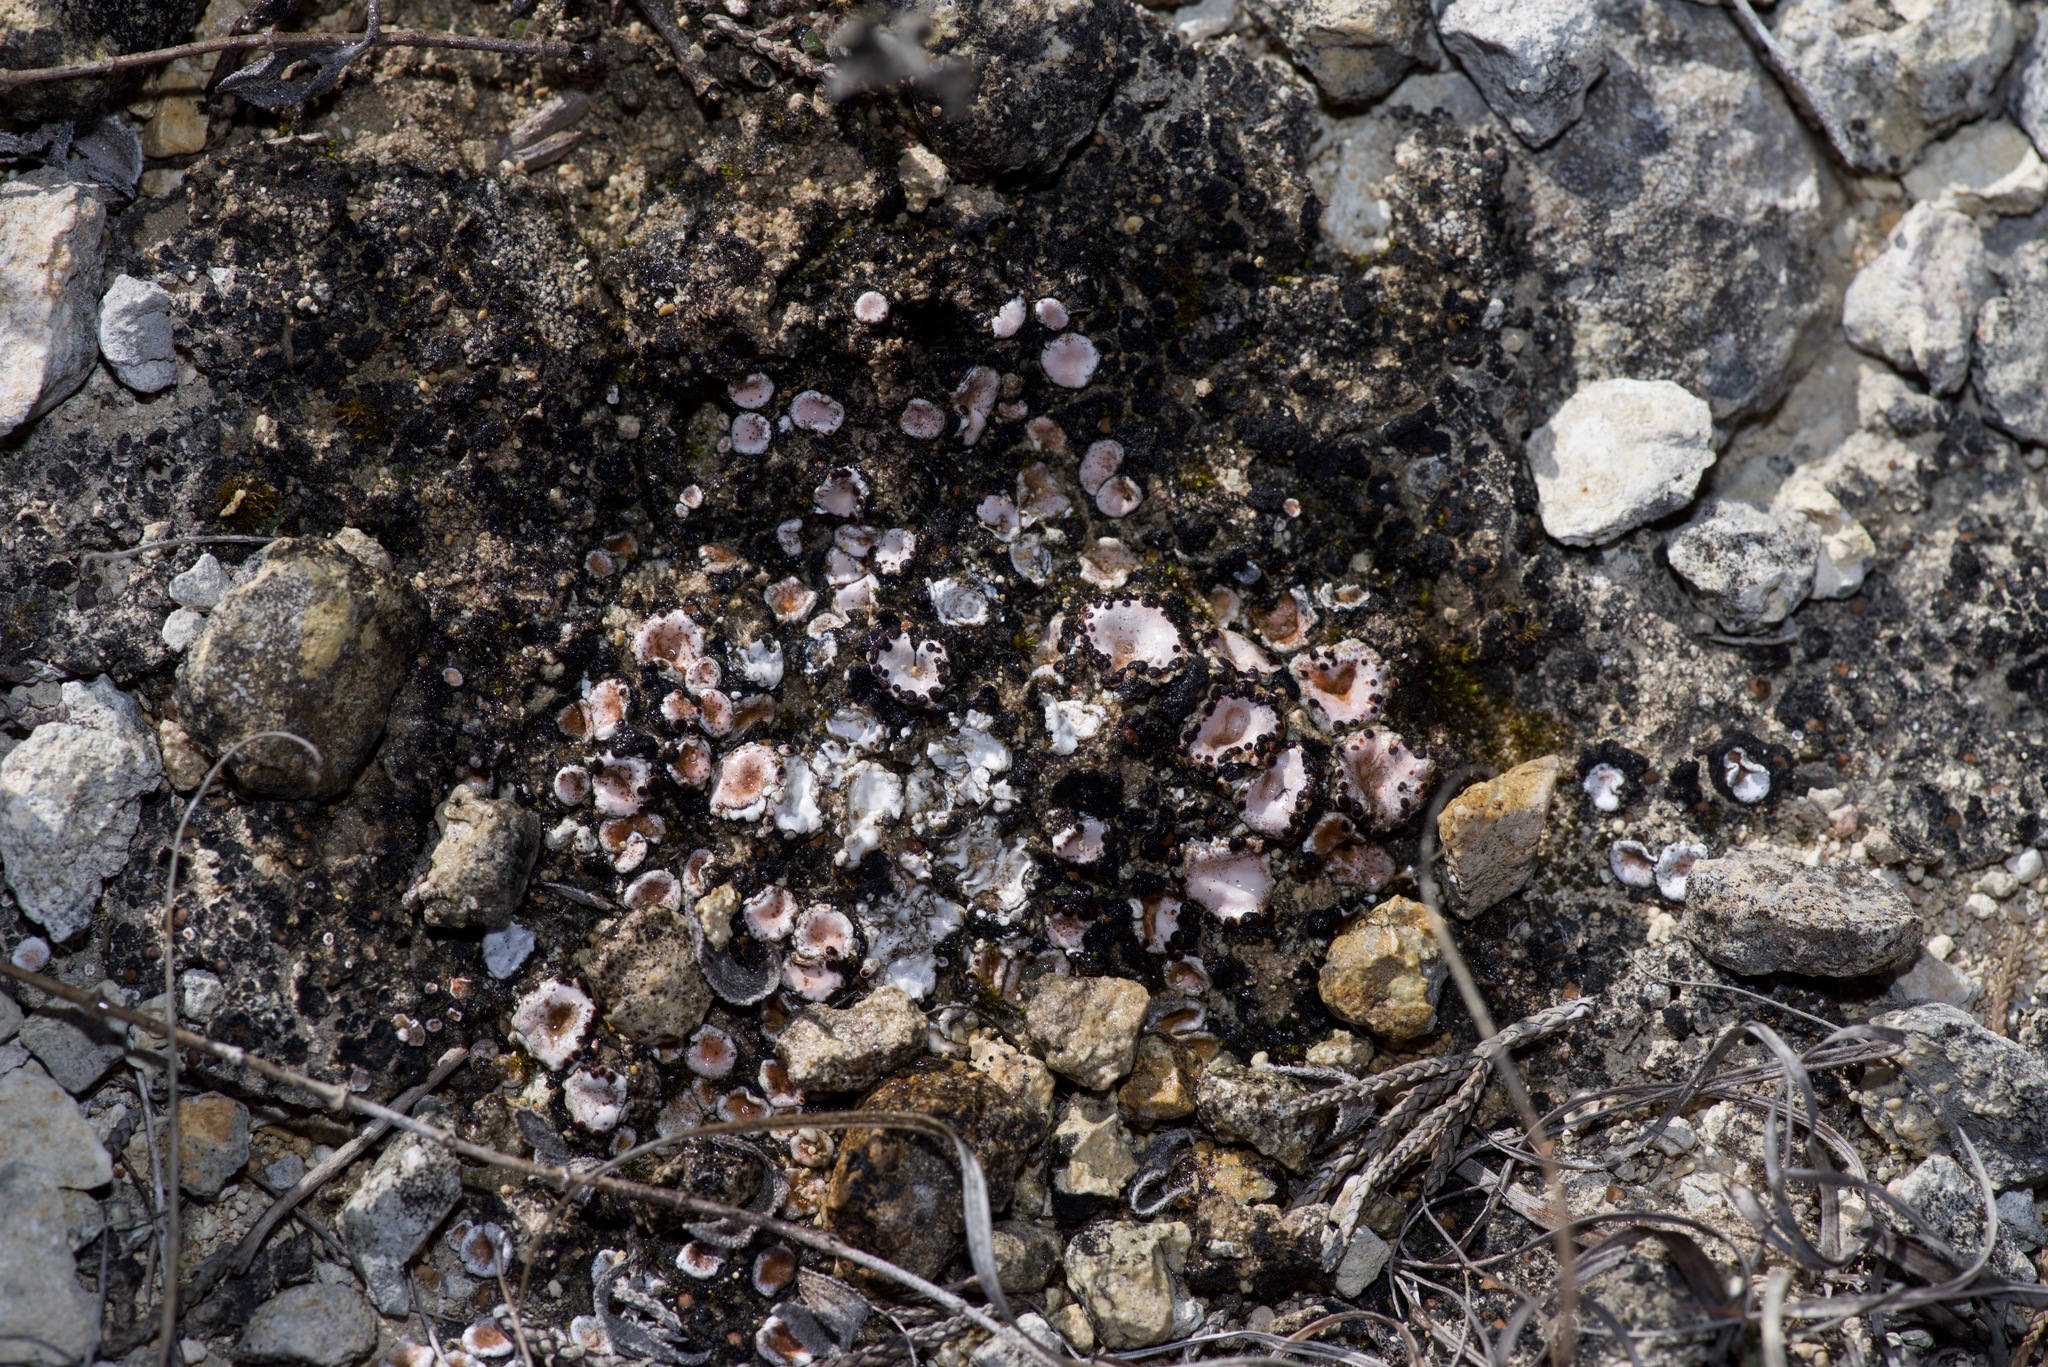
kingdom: Fungi
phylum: Ascomycota
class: Lecanoromycetes
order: Lecanorales
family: Psoraceae
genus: Psora
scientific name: Psora crenata
